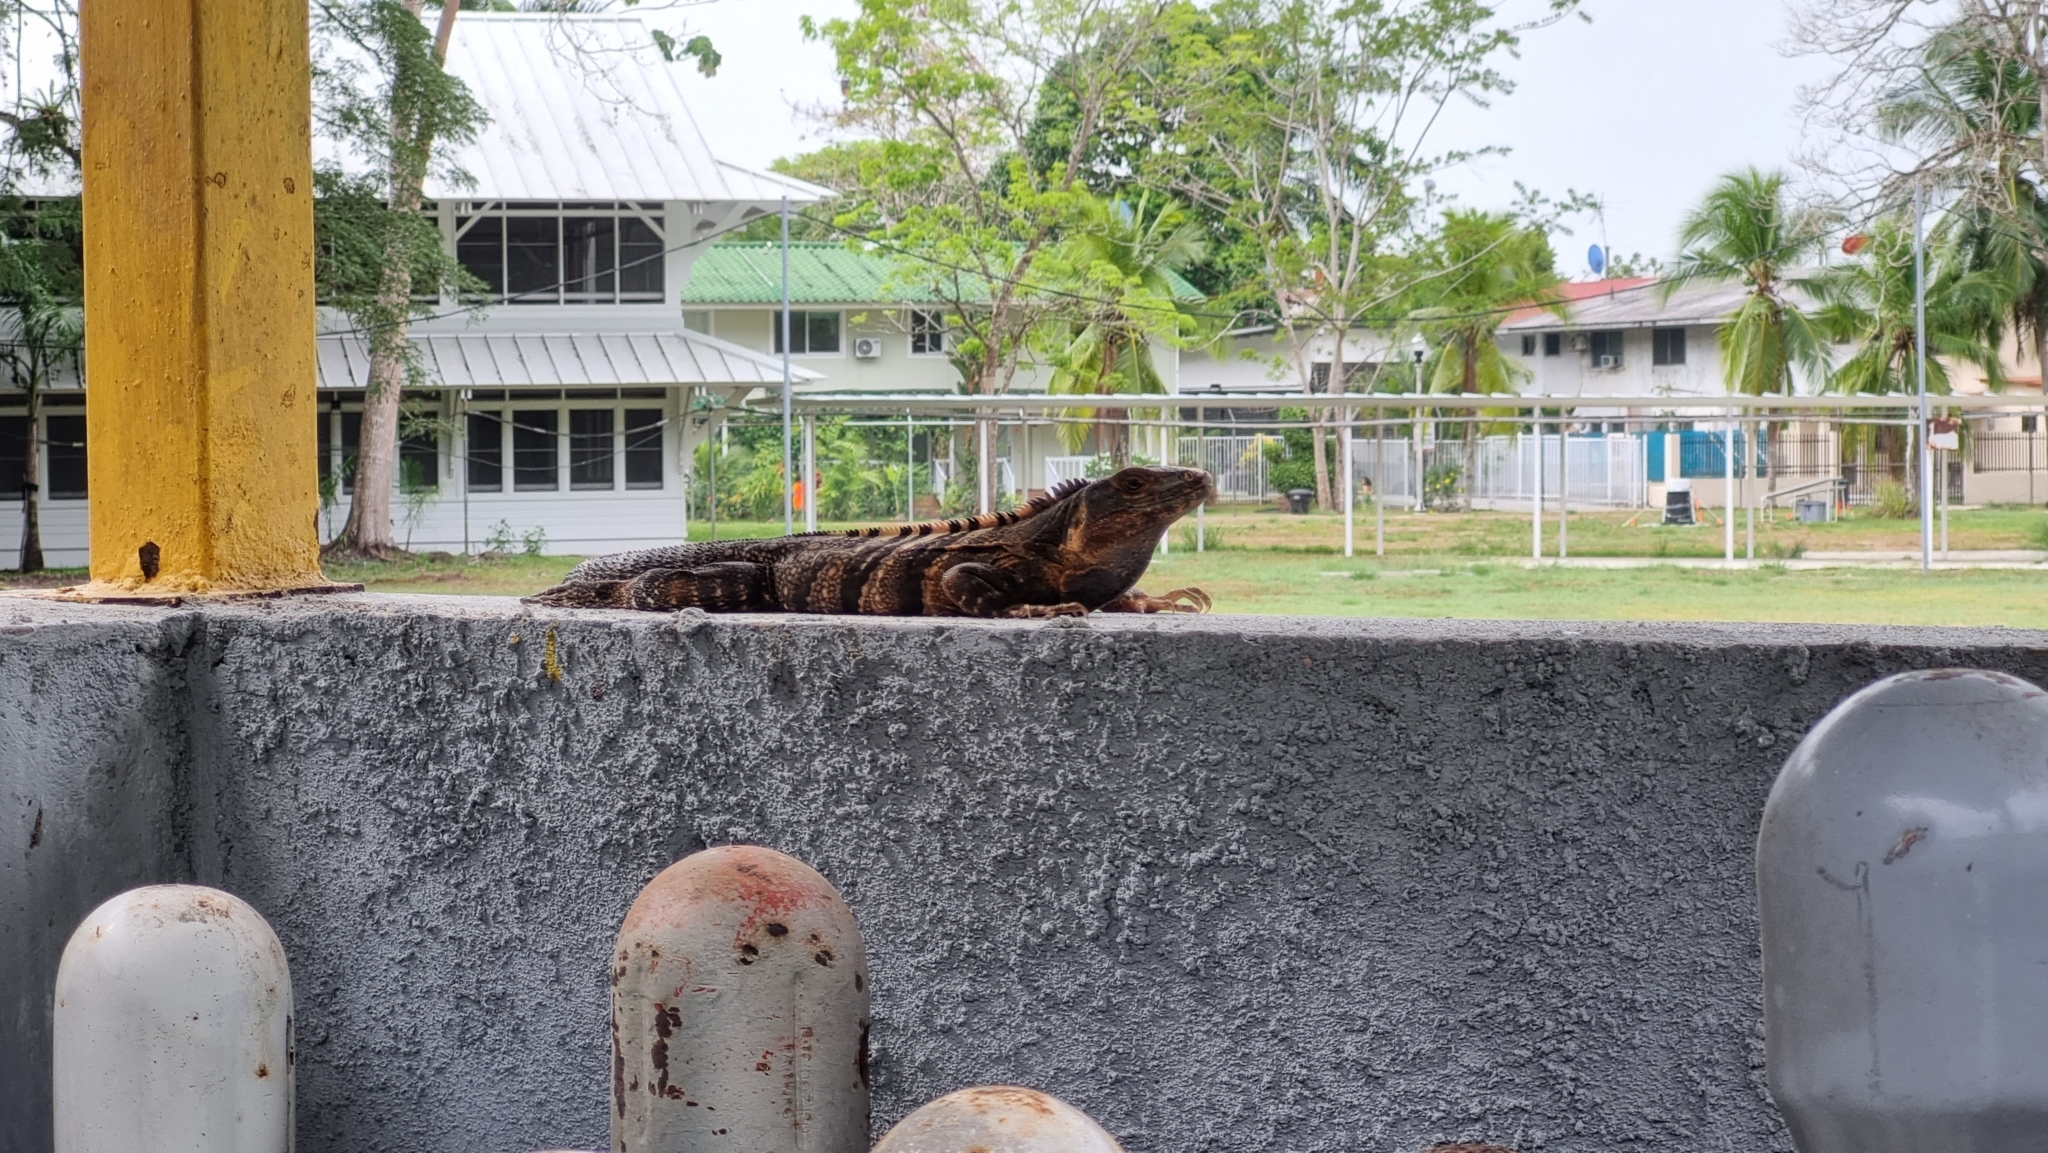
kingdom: Animalia
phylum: Chordata
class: Squamata
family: Iguanidae
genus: Ctenosaura
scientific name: Ctenosaura similis
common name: Black spiny-tailed iguana
